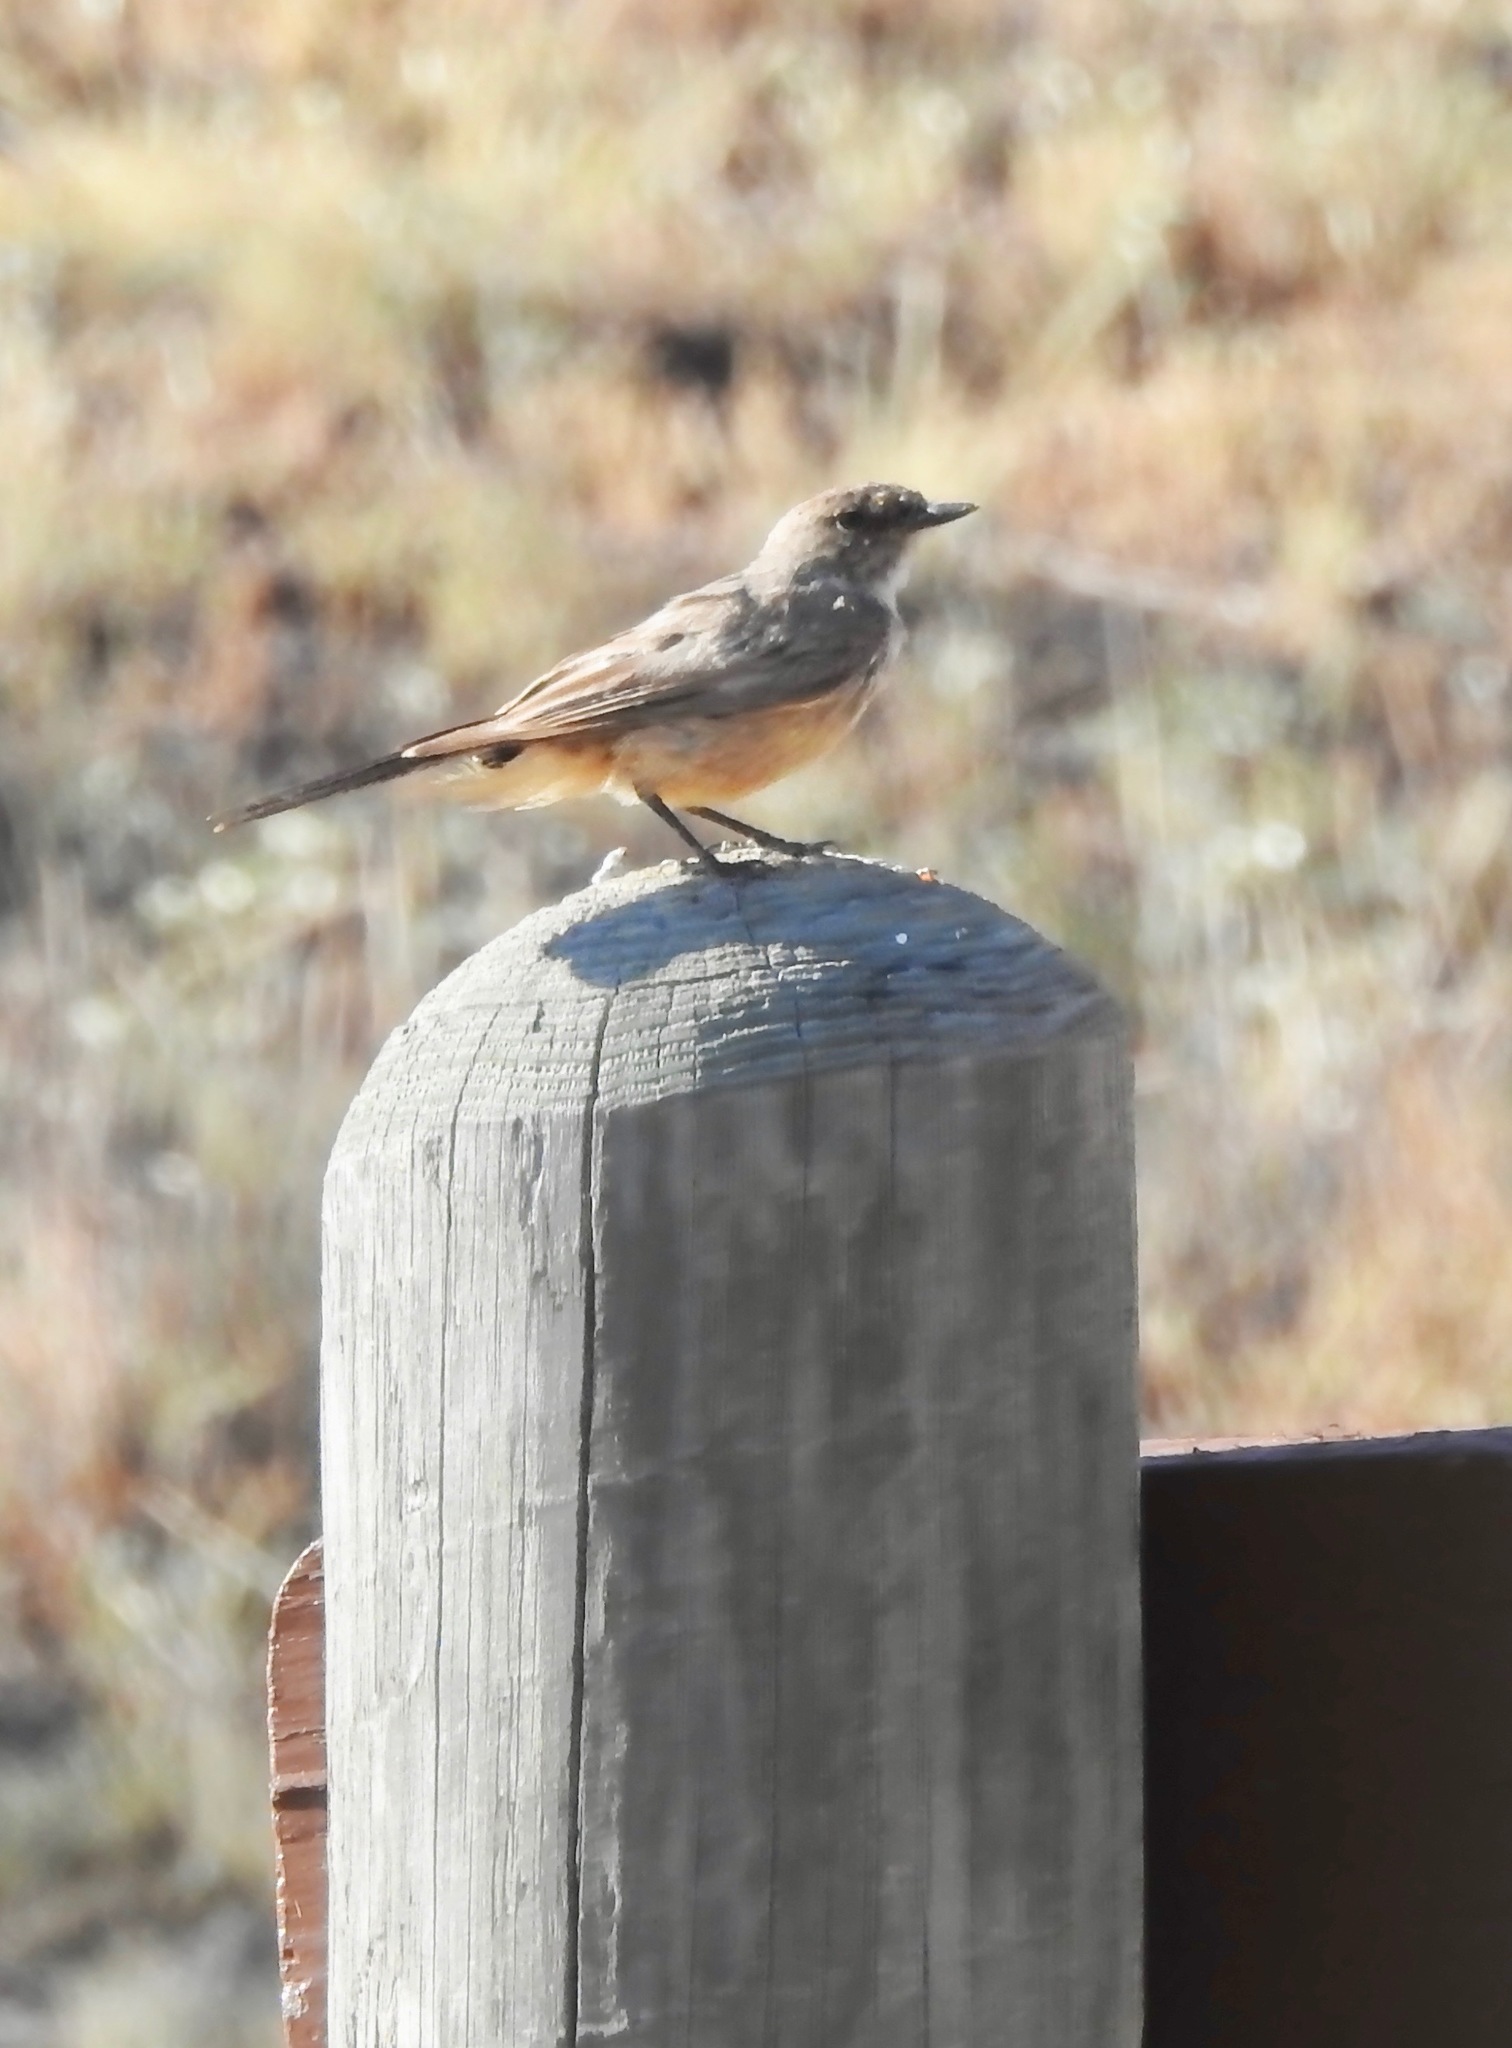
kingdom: Animalia
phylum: Chordata
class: Aves
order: Passeriformes
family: Tyrannidae
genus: Sayornis
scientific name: Sayornis saya
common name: Say's phoebe
